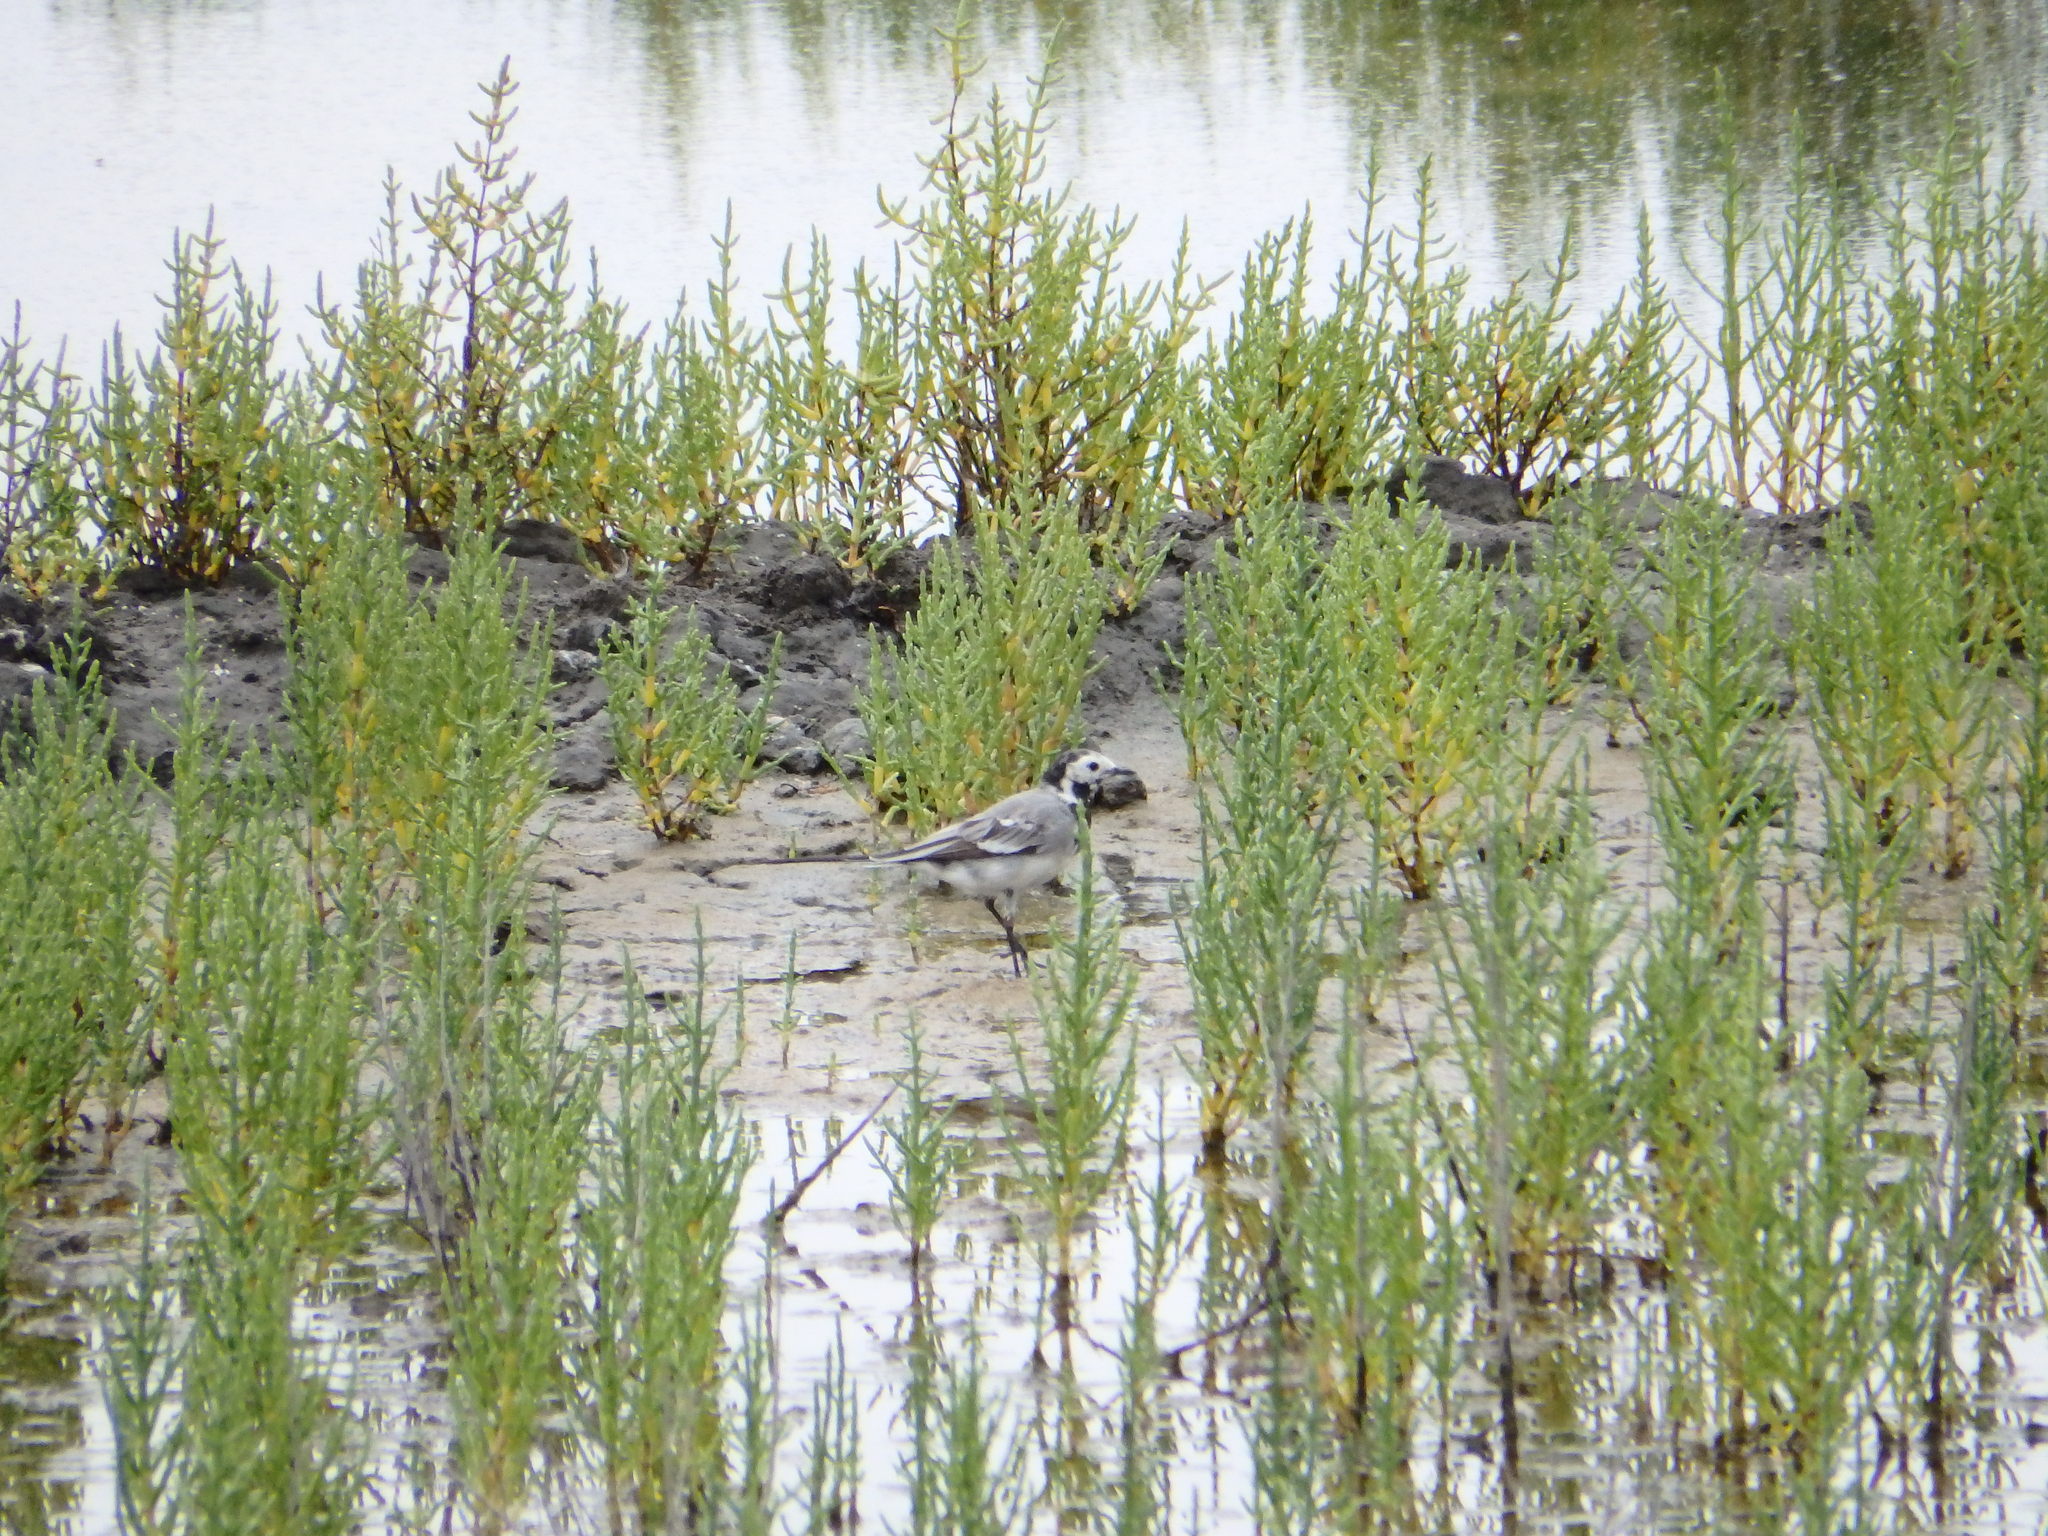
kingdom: Animalia
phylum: Chordata
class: Aves
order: Passeriformes
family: Motacillidae
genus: Motacilla
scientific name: Motacilla alba
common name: White wagtail
